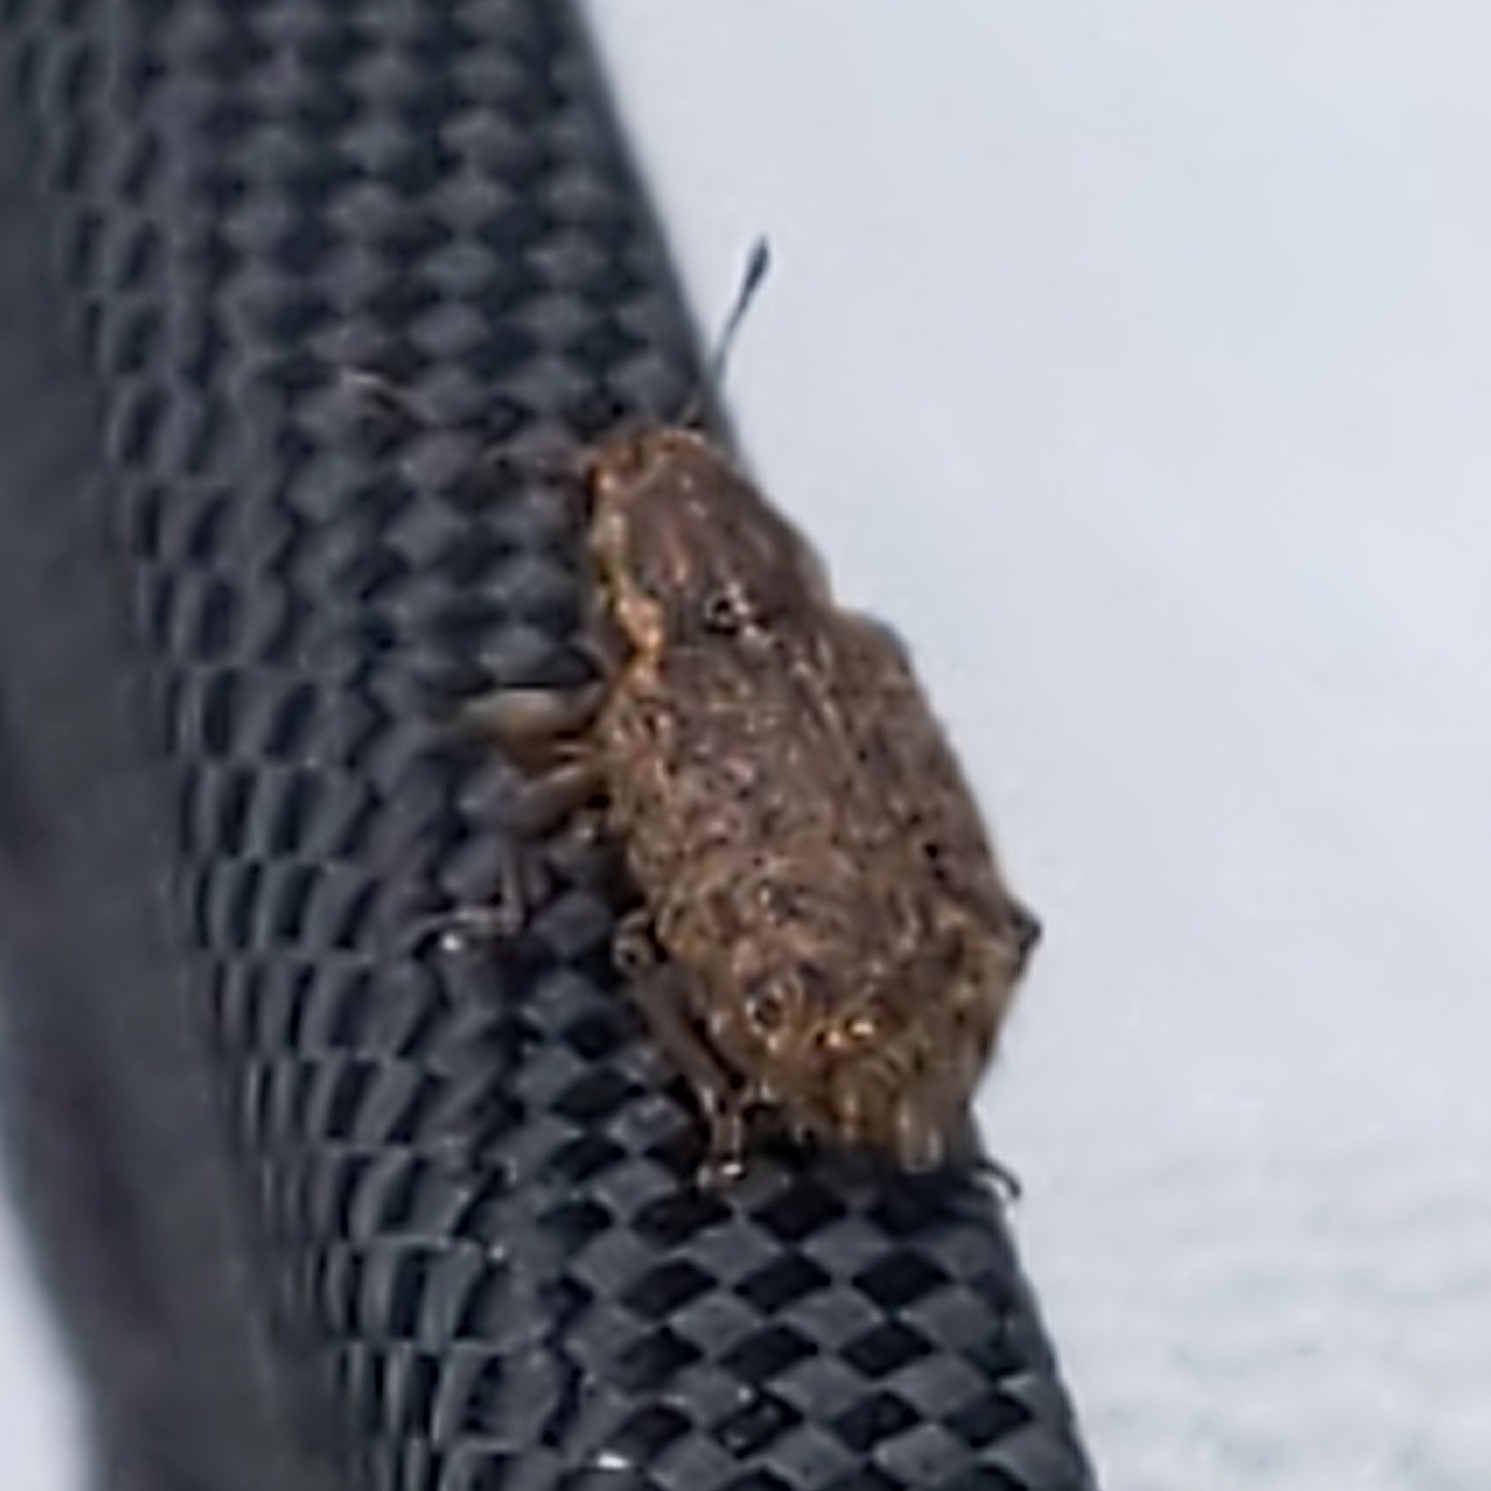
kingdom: Animalia
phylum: Arthropoda
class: Insecta
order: Coleoptera
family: Curculionidae
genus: Sitona
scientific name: Sitona hispidulus
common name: Clover weevil
